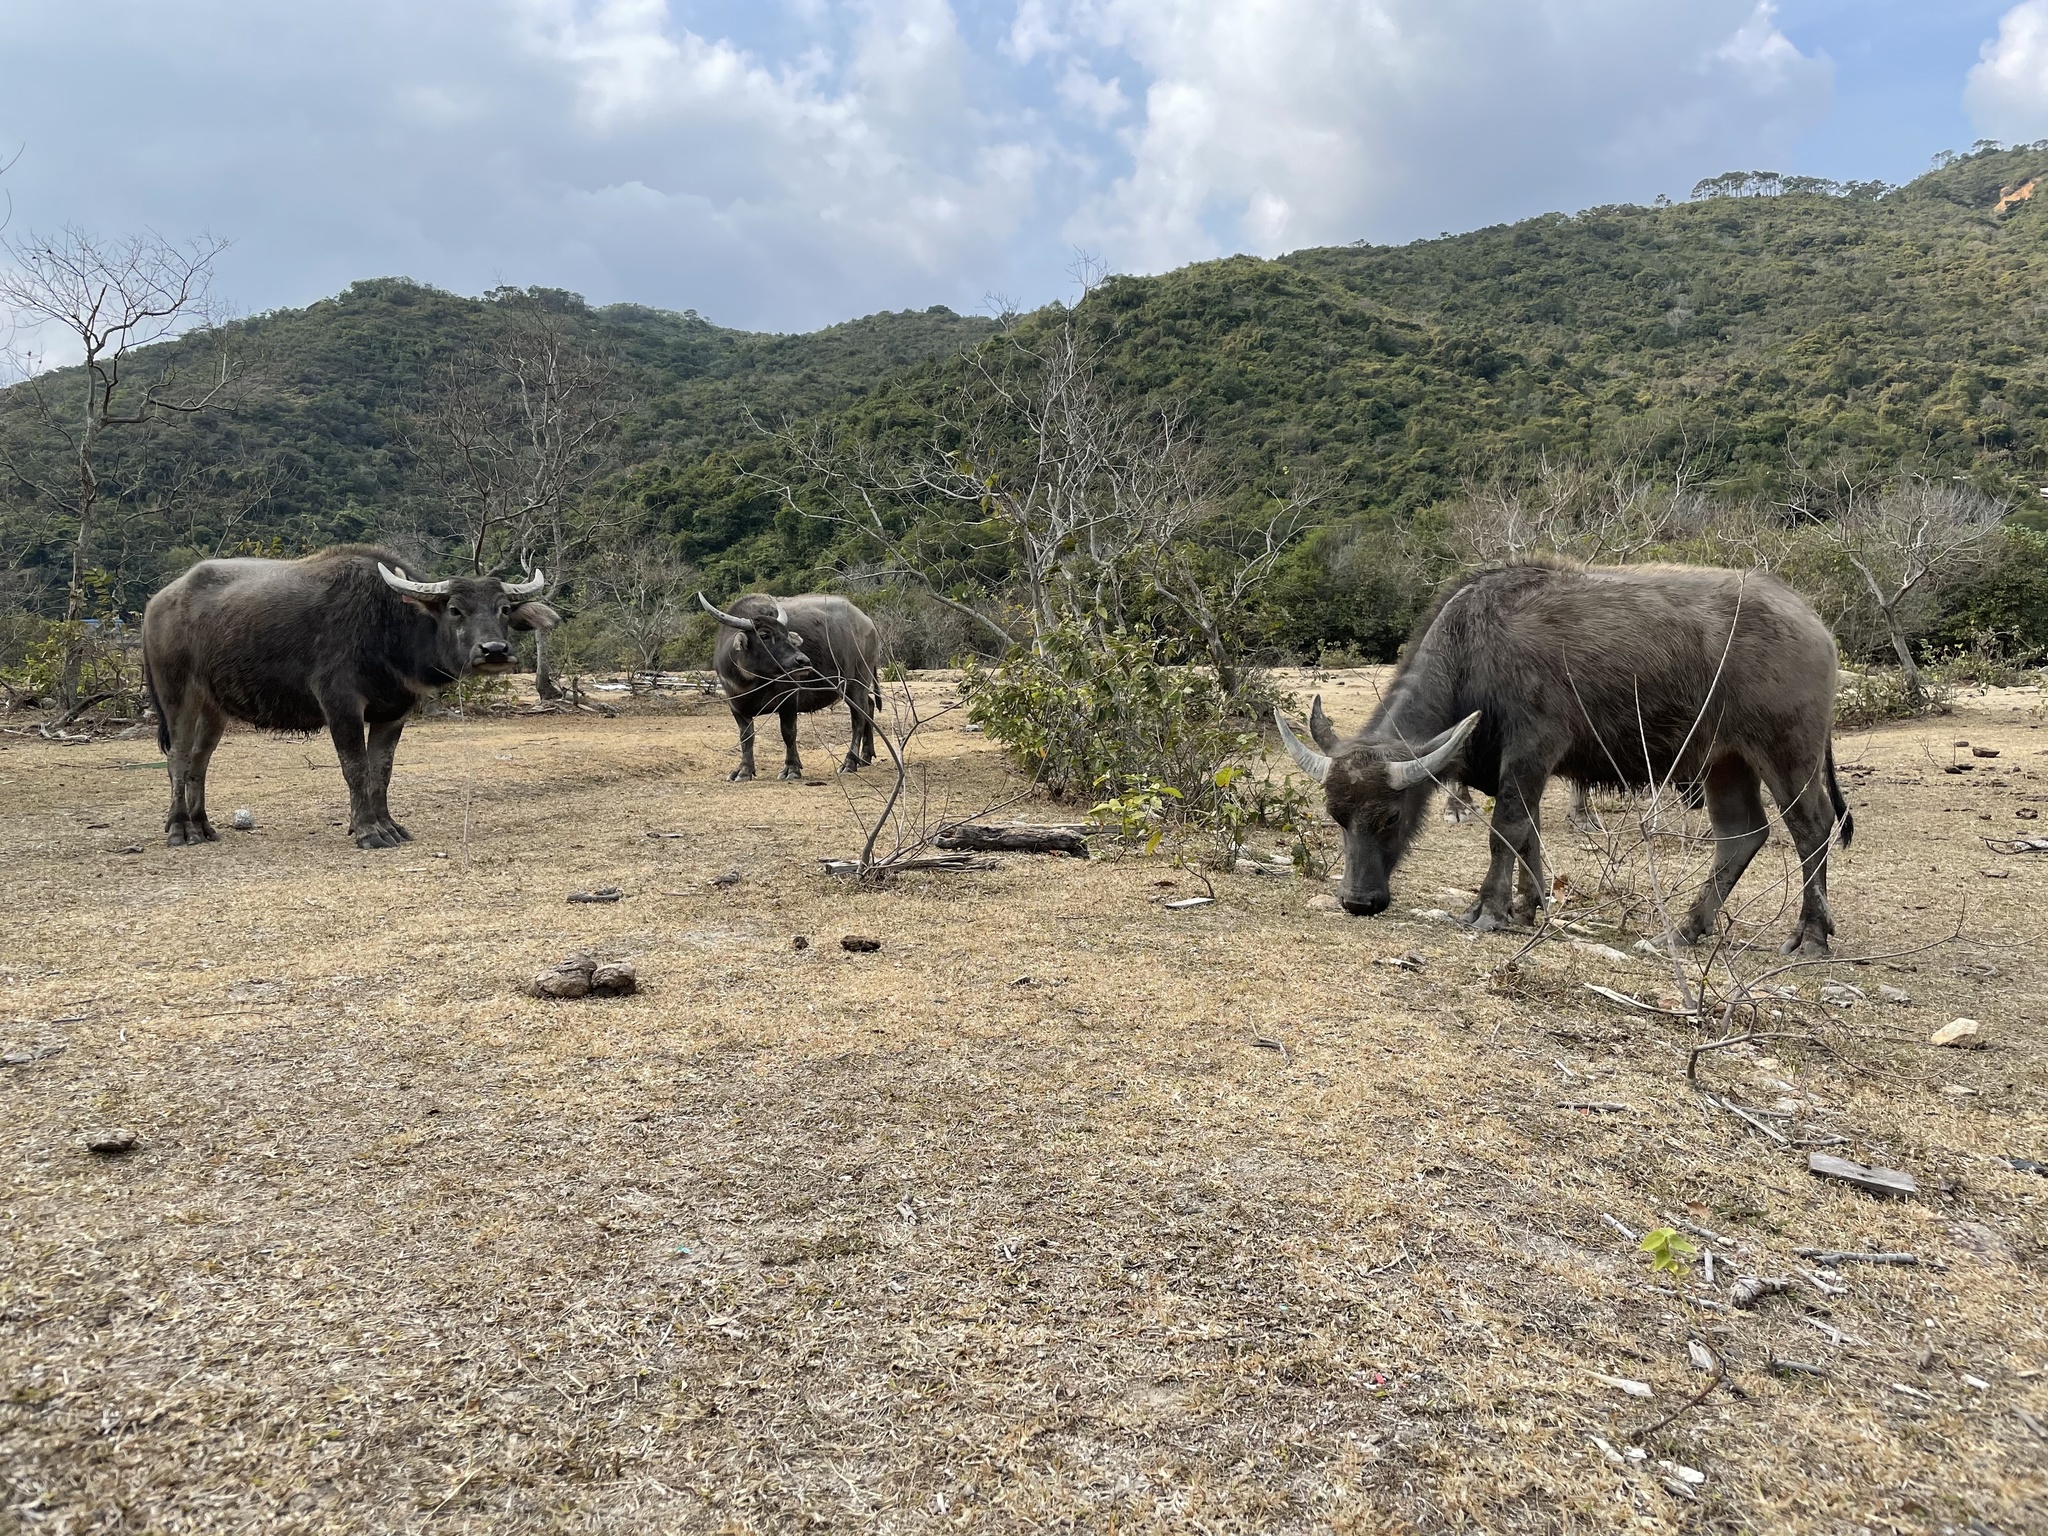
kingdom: Animalia
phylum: Chordata
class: Mammalia
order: Artiodactyla
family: Bovidae
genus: Bubalus
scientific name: Bubalus bubalis
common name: Water buffalo
